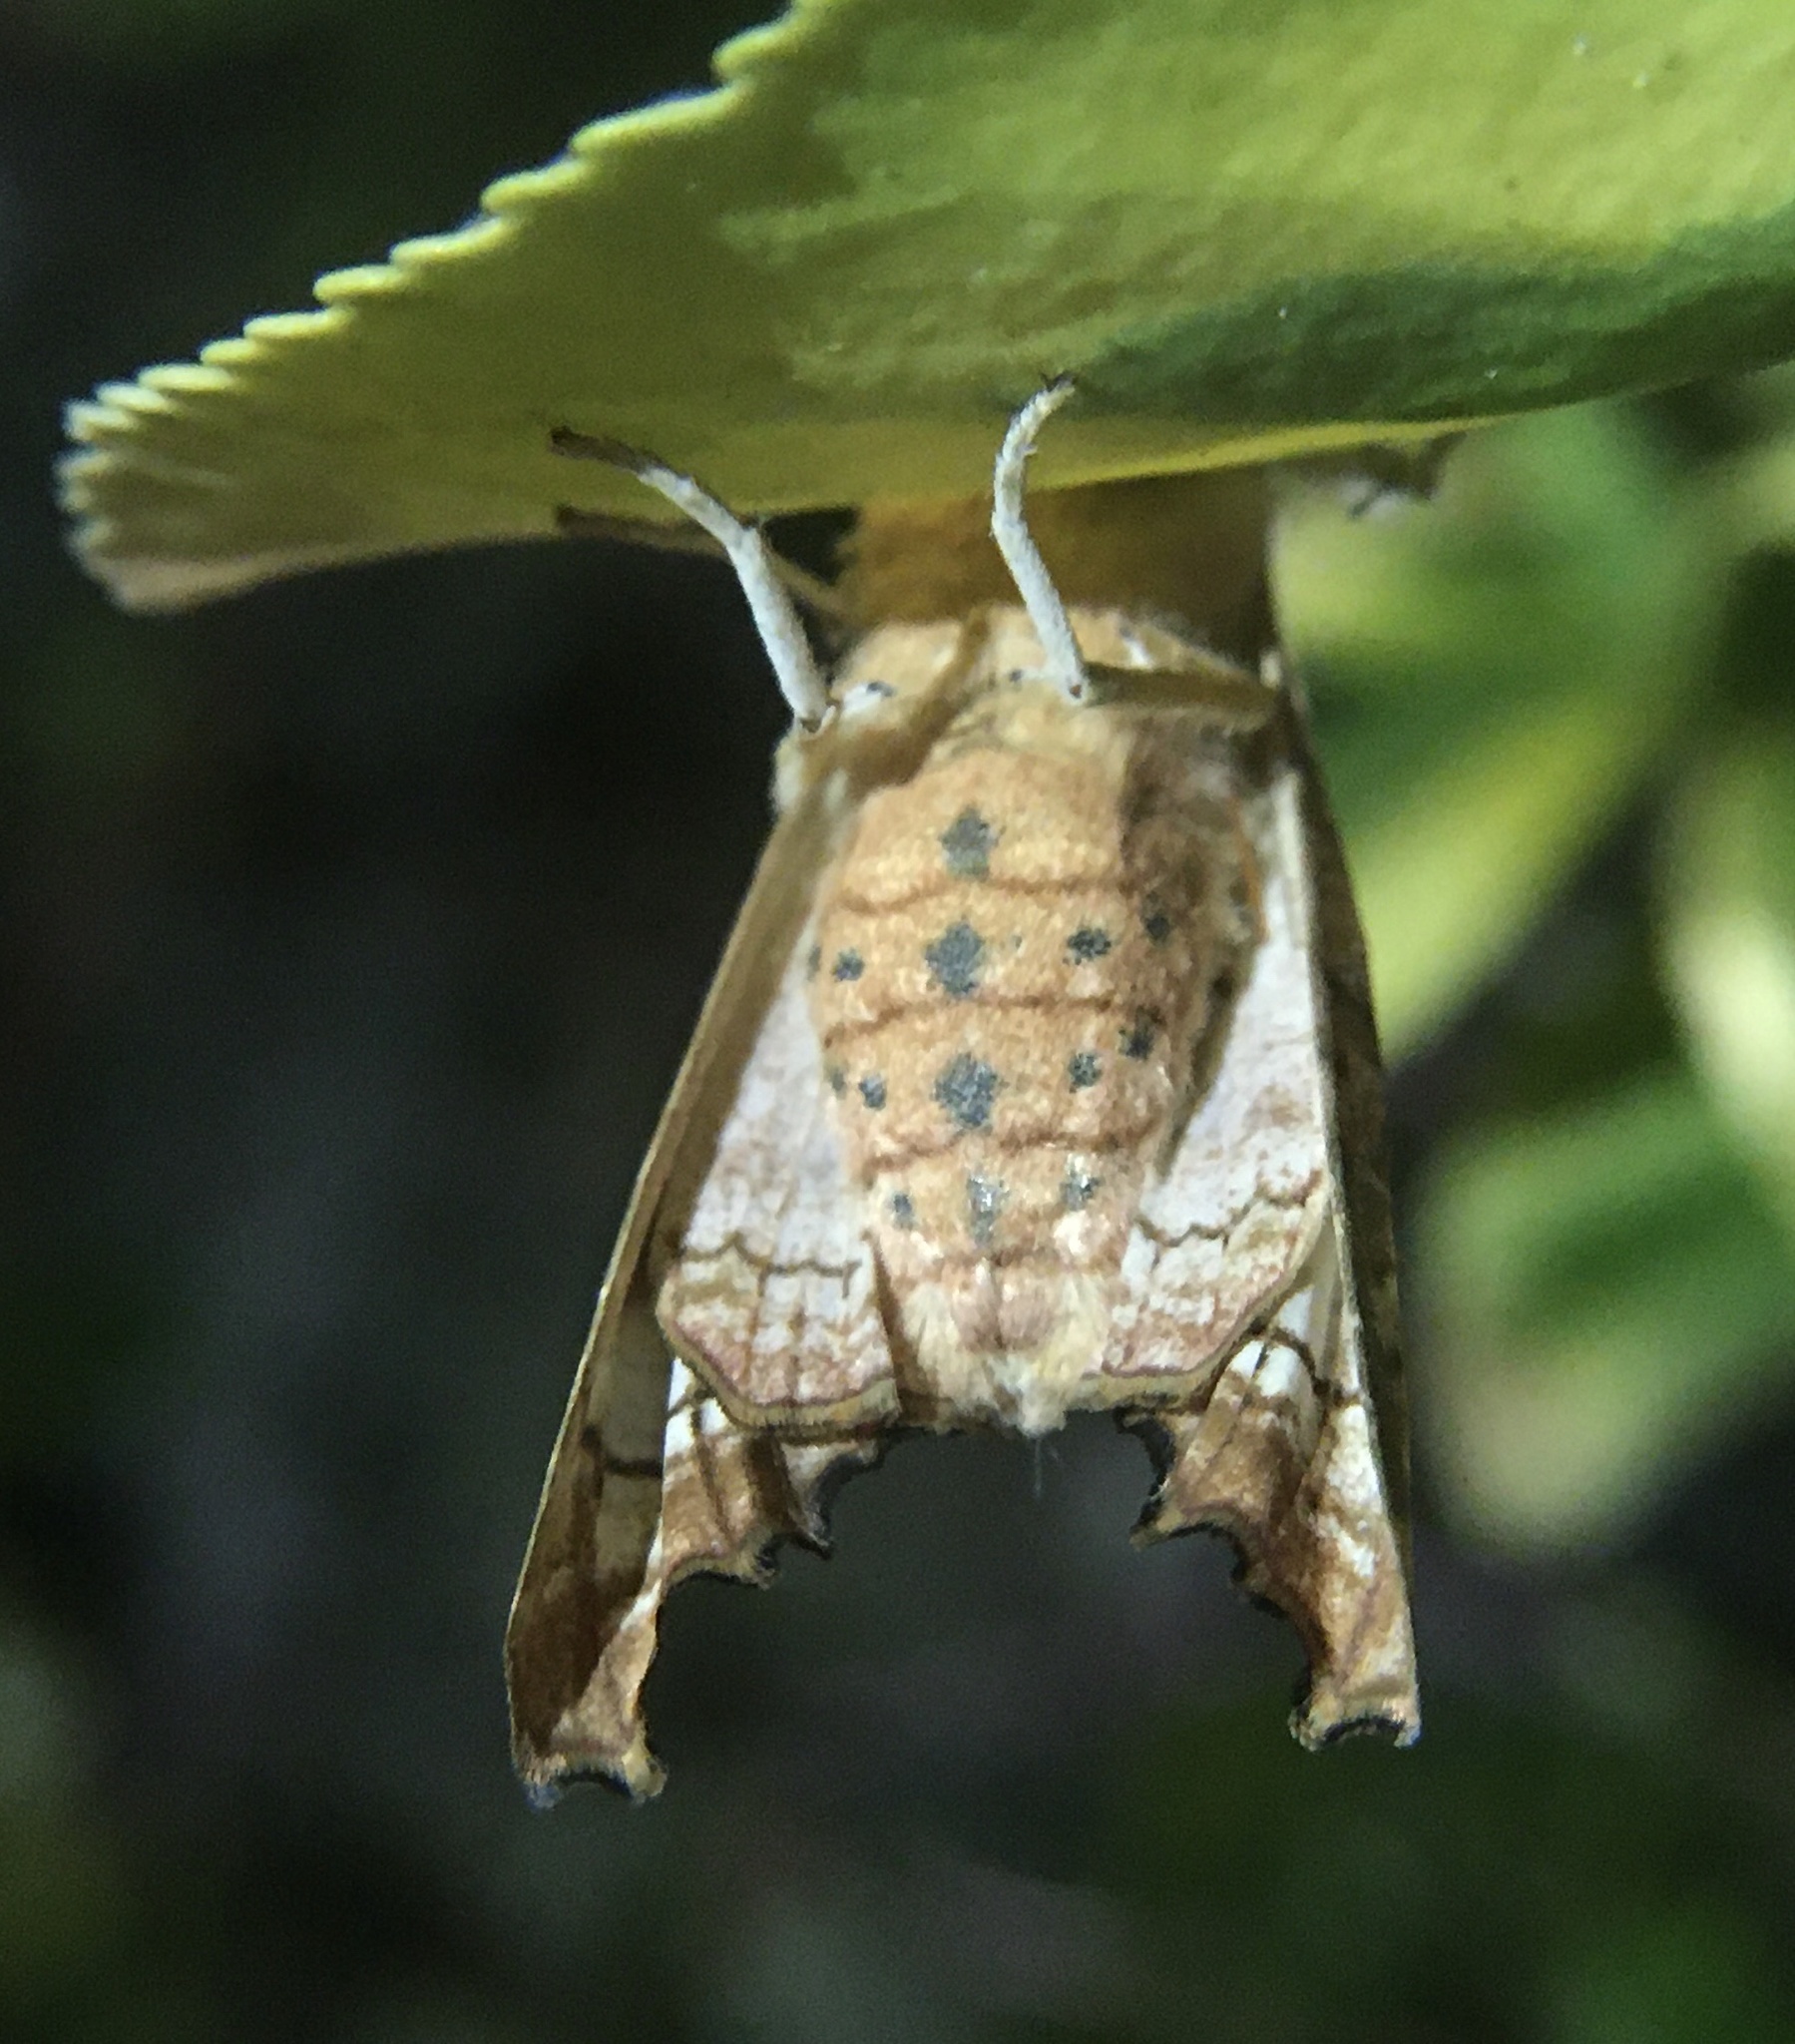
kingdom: Animalia
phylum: Arthropoda
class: Insecta
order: Lepidoptera
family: Noctuidae
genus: Phlogophora
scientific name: Phlogophora meticulosa
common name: Angle shades
